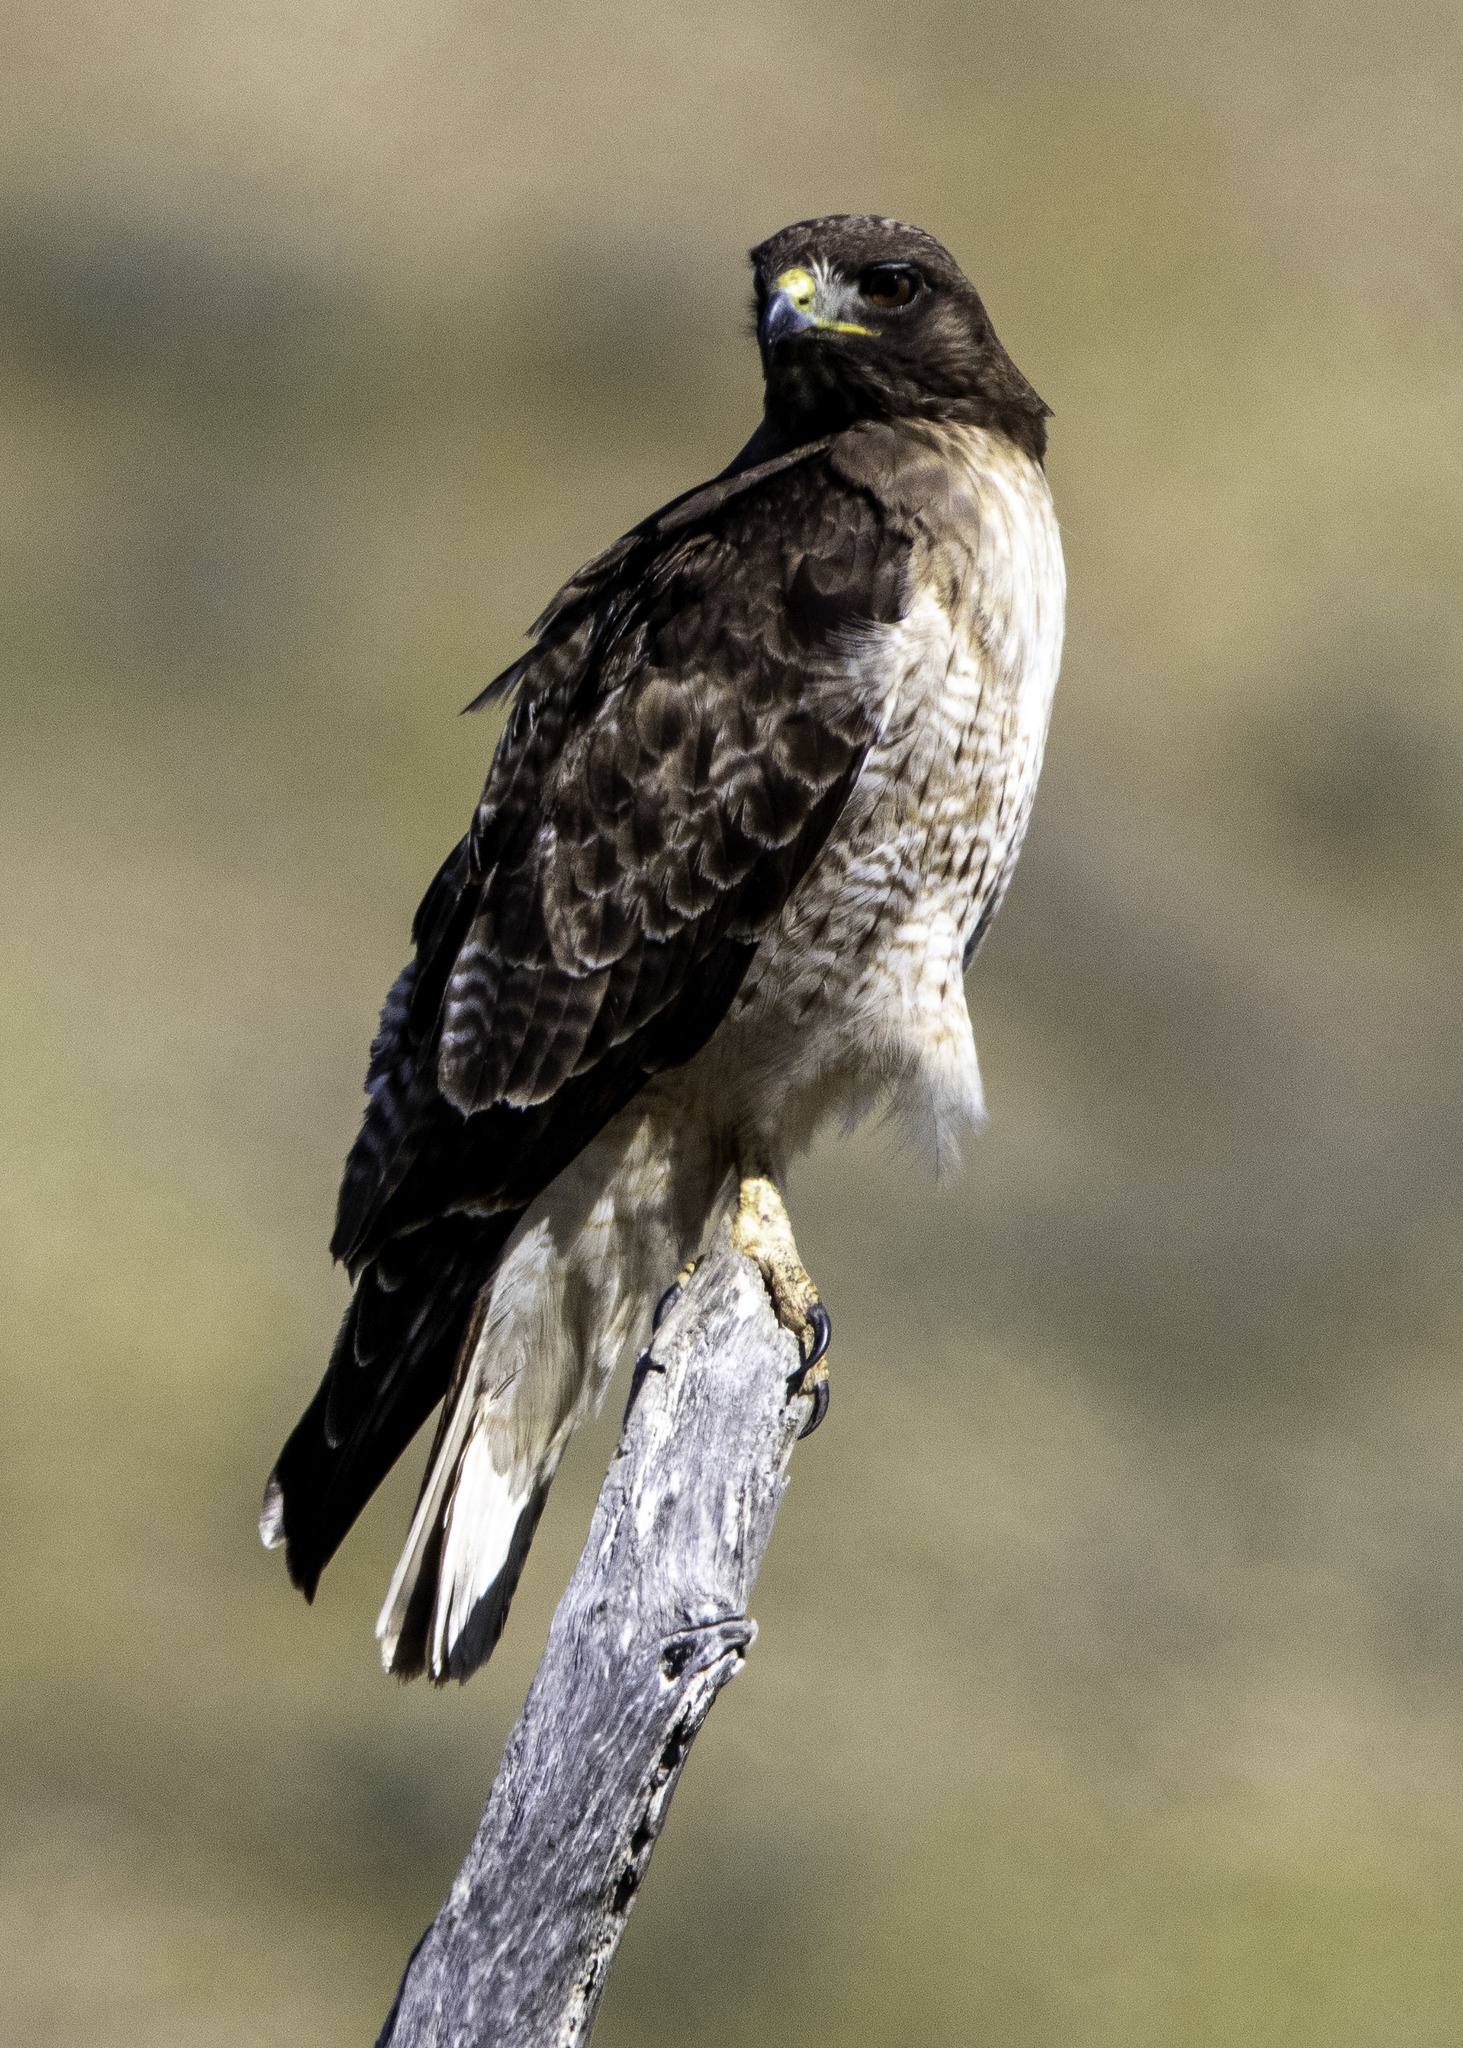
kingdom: Animalia
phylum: Chordata
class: Aves
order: Accipitriformes
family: Accipitridae
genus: Buteo
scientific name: Buteo jamaicensis
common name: Red-tailed hawk
